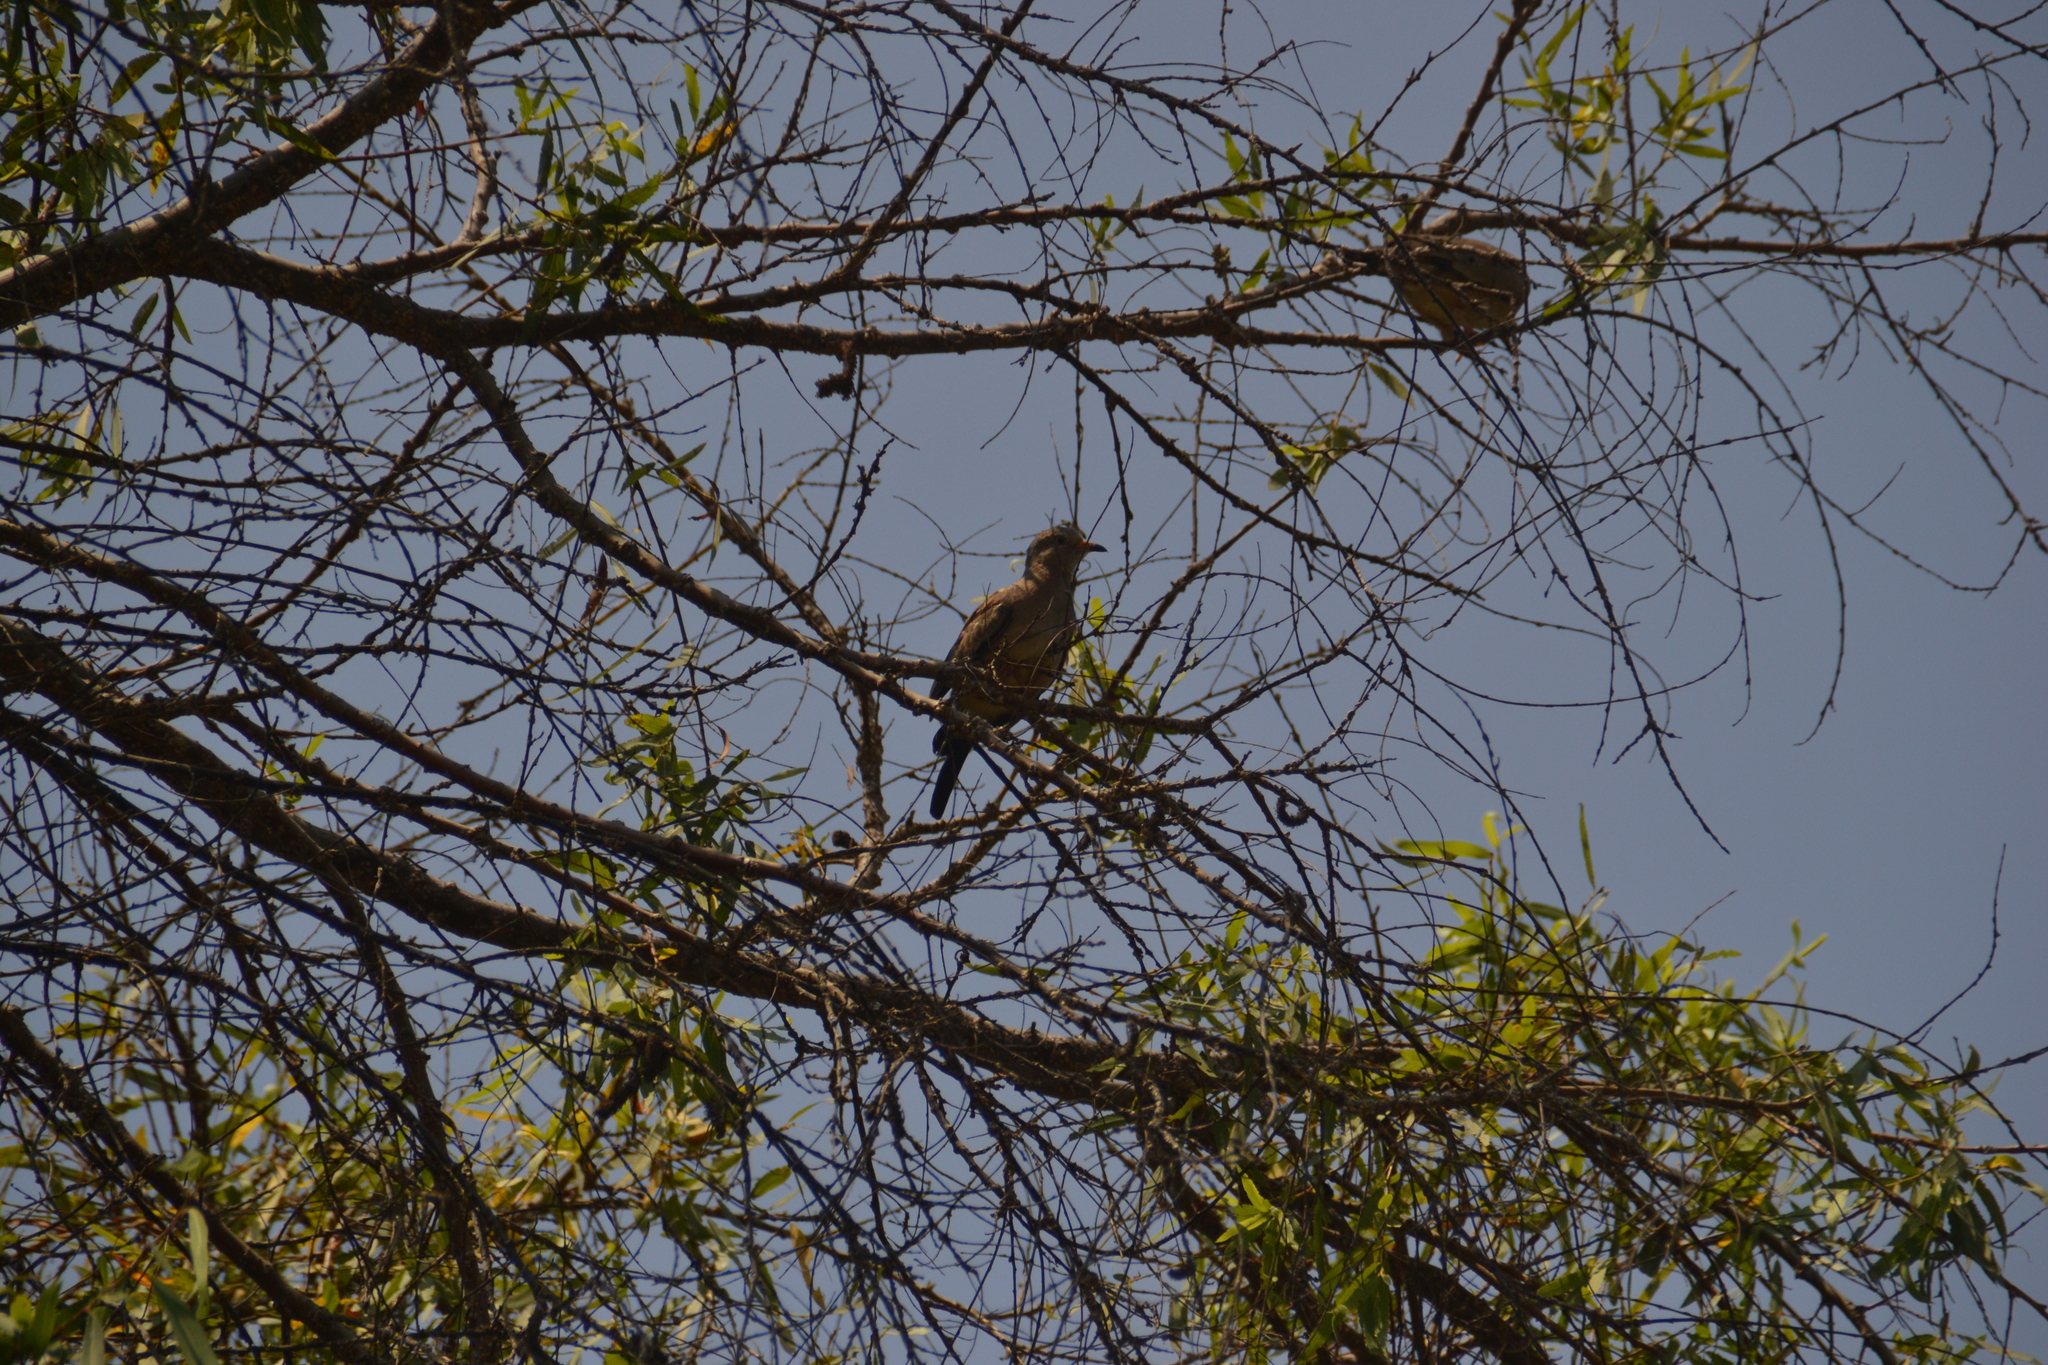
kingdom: Animalia
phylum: Chordata
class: Aves
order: Columbiformes
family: Columbidae
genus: Columbina
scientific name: Columbina cruziana
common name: Croaking ground dove
